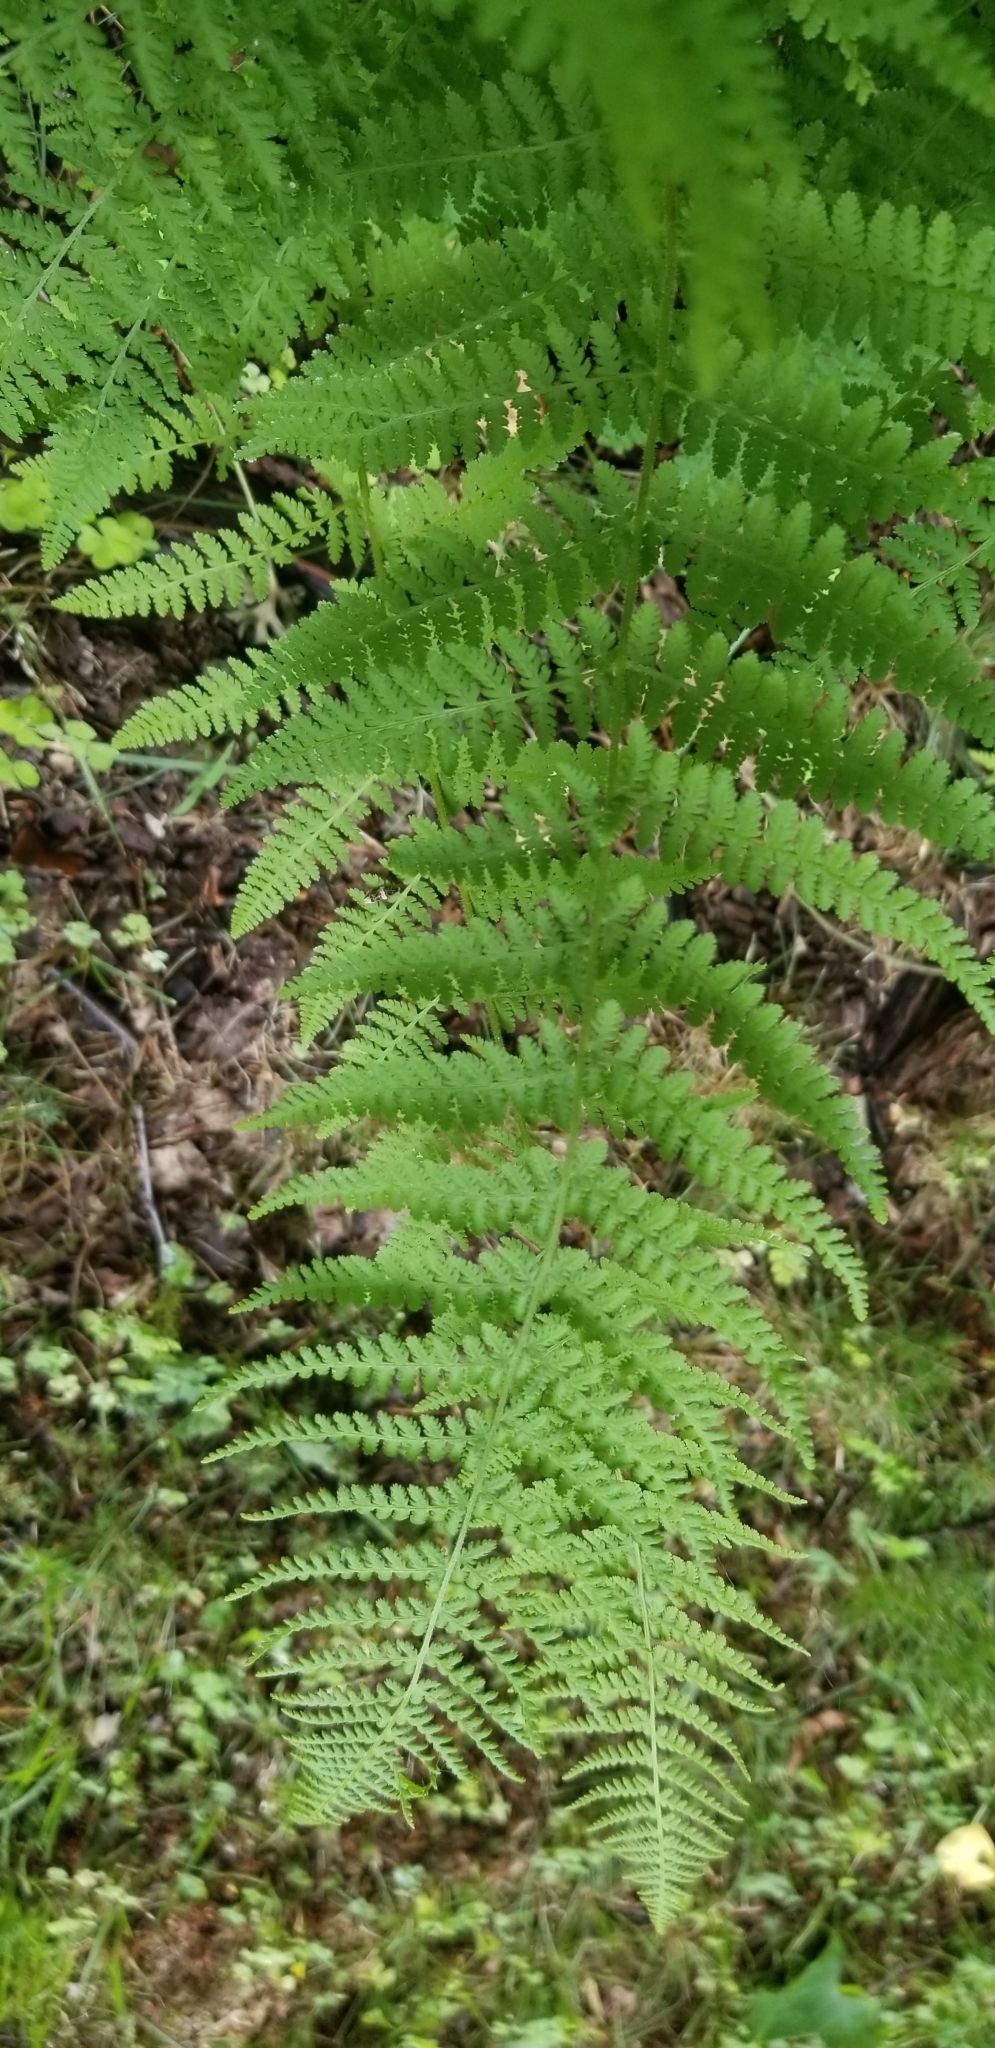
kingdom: Plantae
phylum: Tracheophyta
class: Polypodiopsida
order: Polypodiales
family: Dennstaedtiaceae
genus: Sitobolium
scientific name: Sitobolium punctilobum
